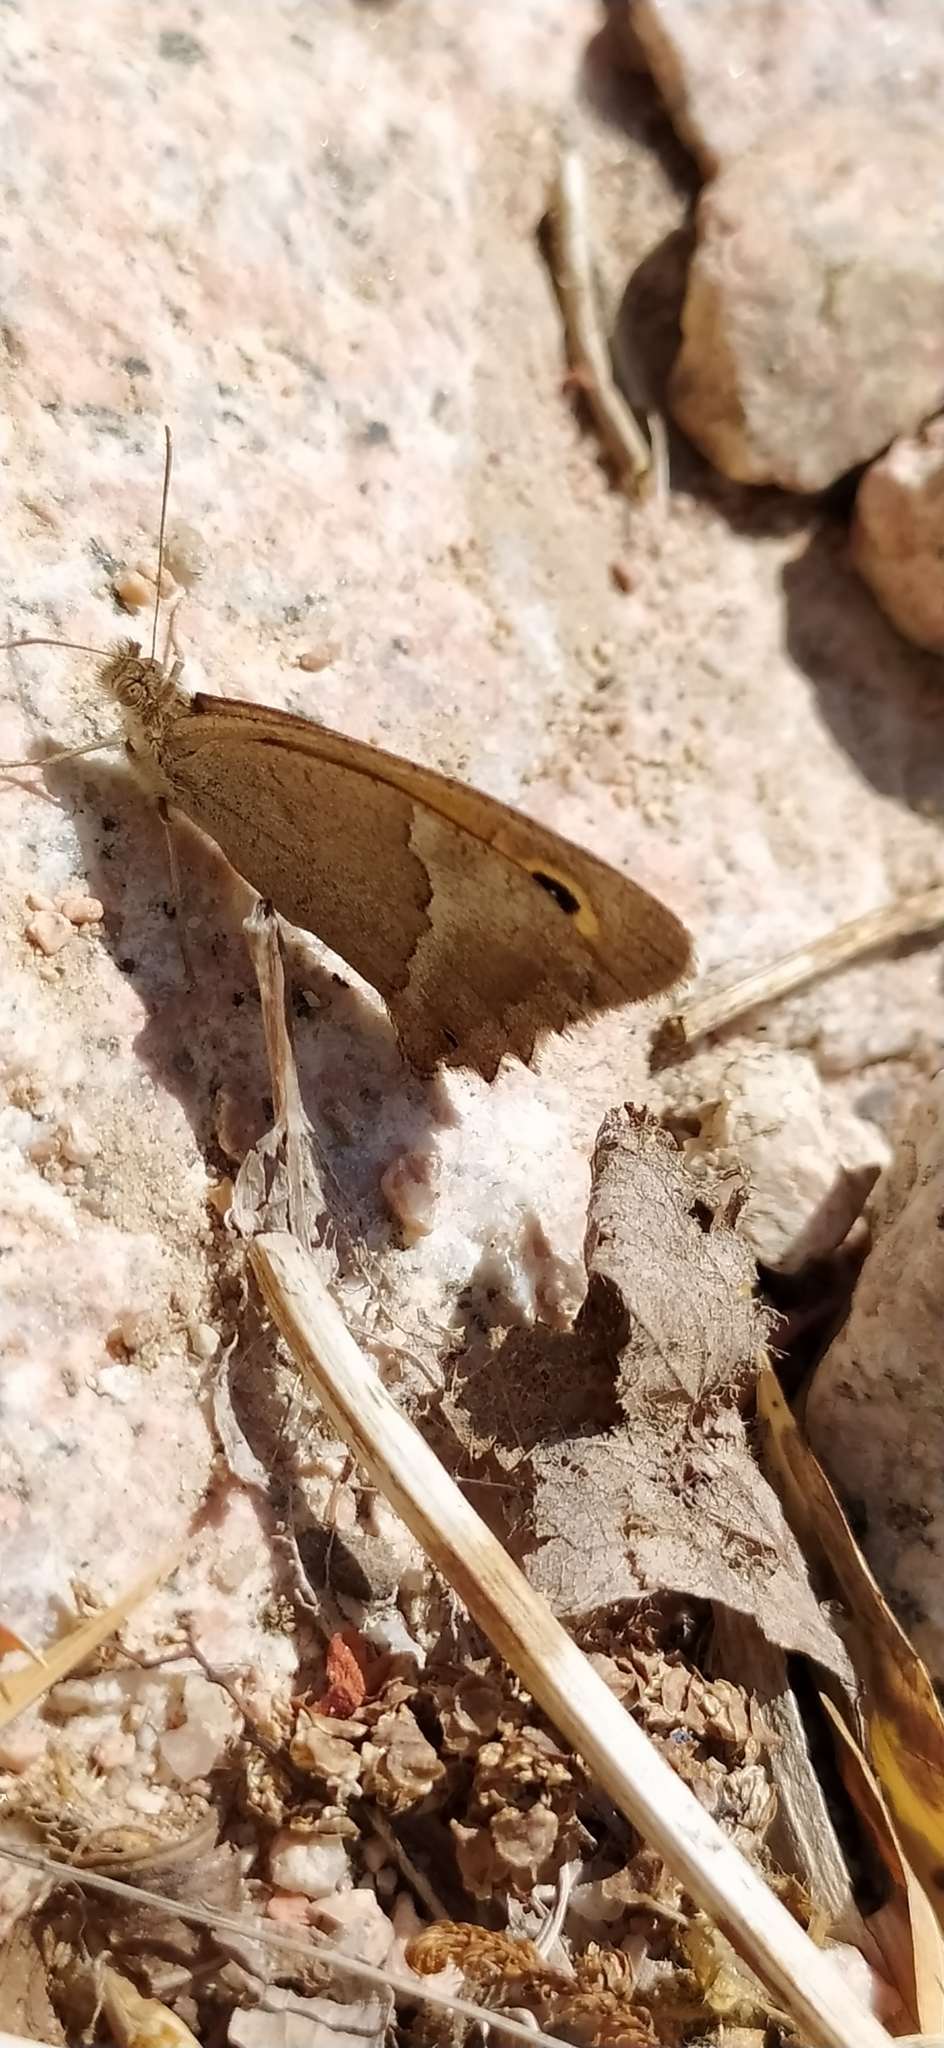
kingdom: Animalia
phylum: Arthropoda
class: Insecta
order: Lepidoptera
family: Nymphalidae
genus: Hyponephele
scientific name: Hyponephele dysdora
